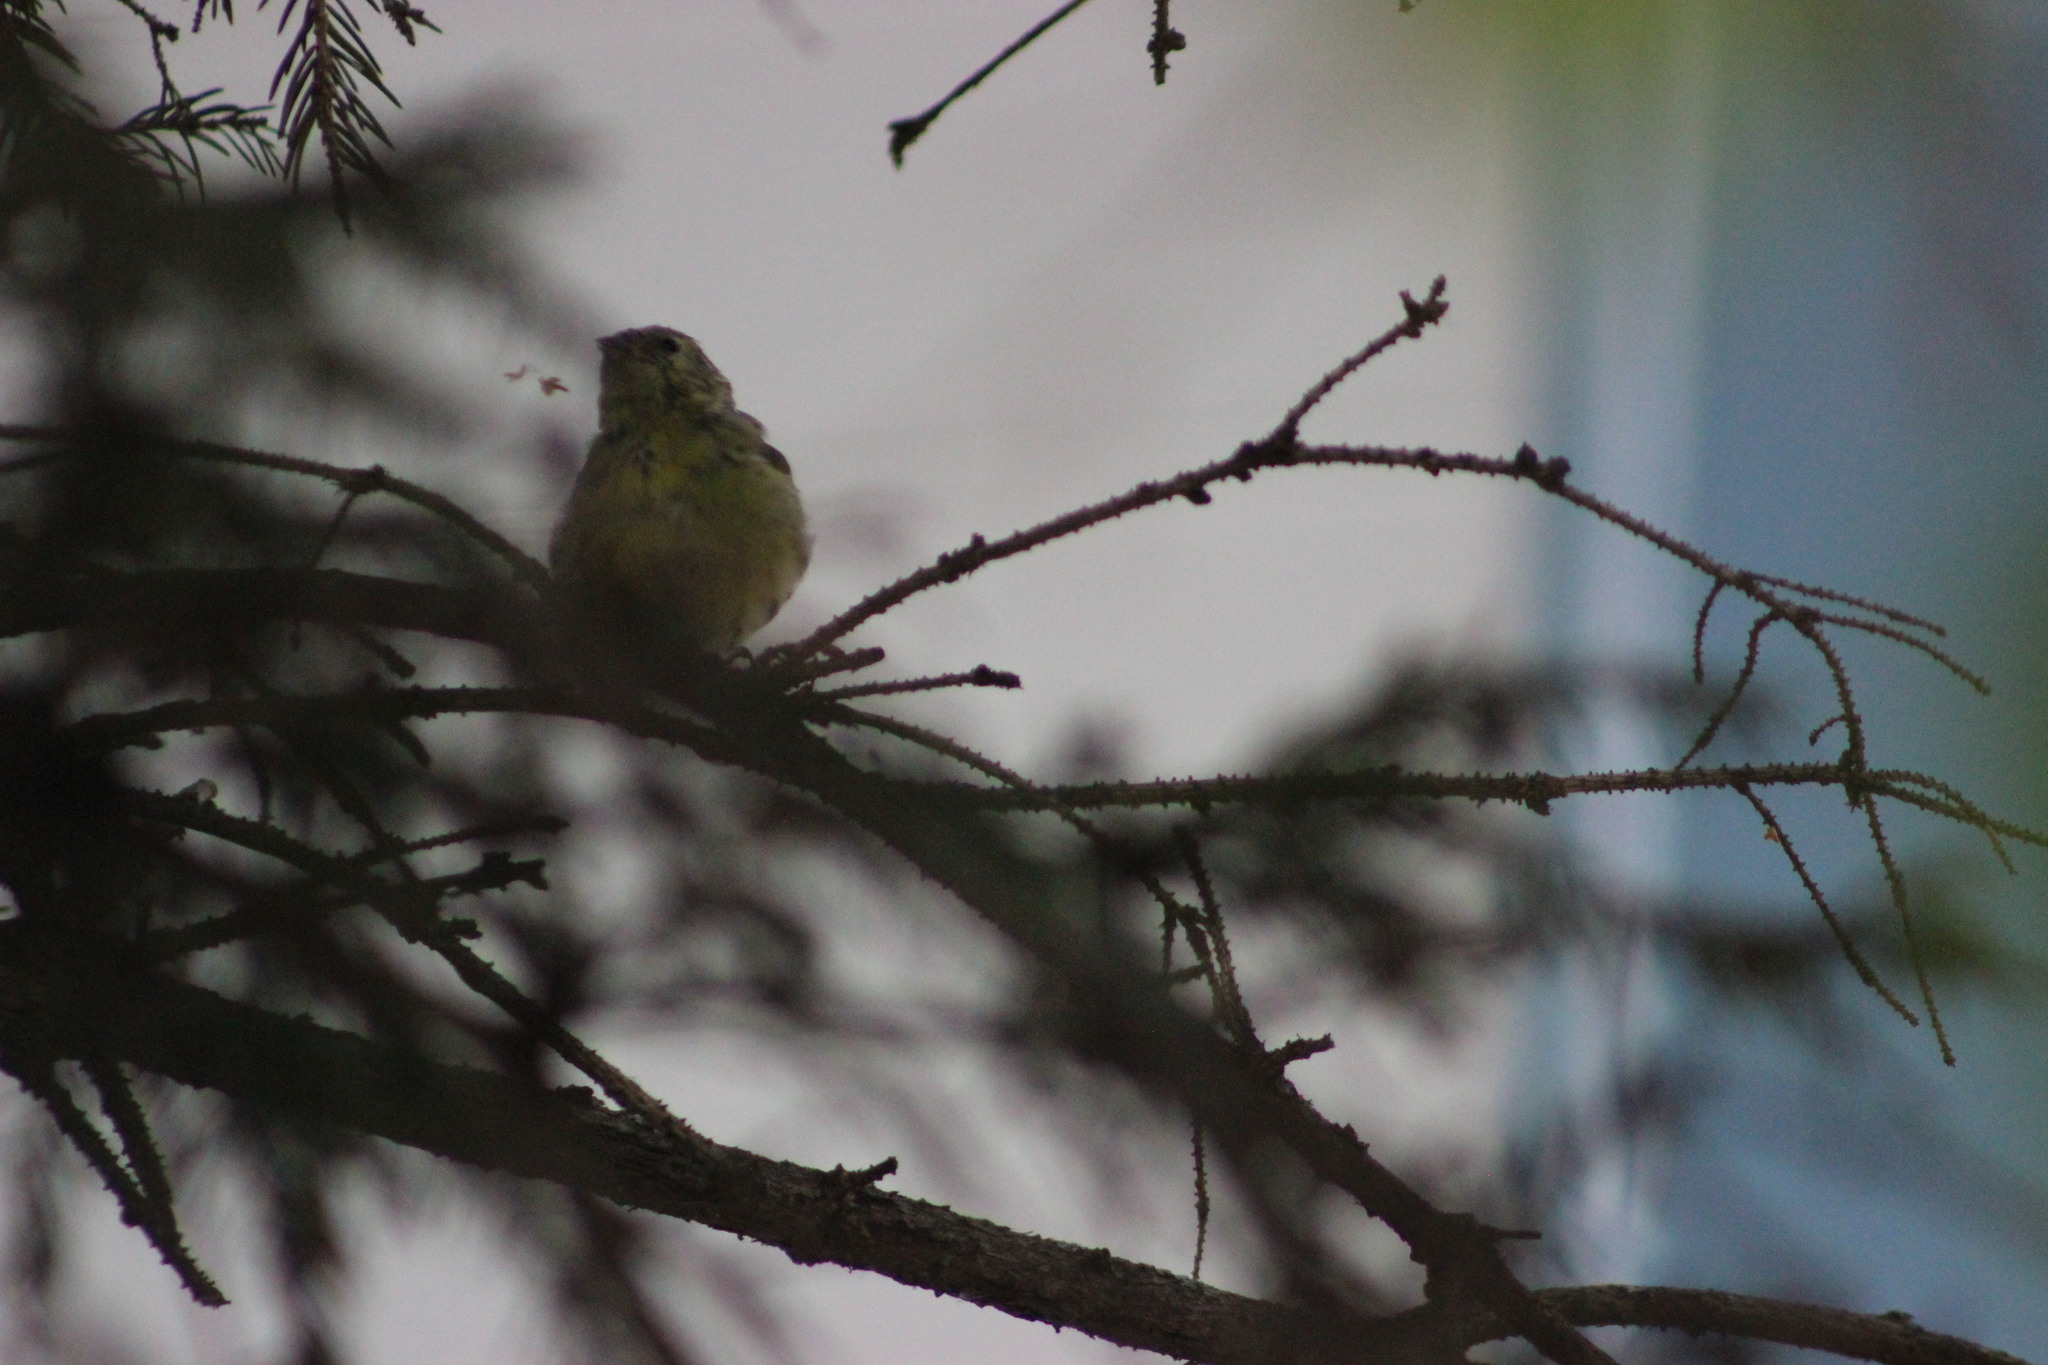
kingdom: Animalia
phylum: Chordata
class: Aves
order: Passeriformes
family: Fringillidae
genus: Spinus
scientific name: Spinus spinus
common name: Eurasian siskin
